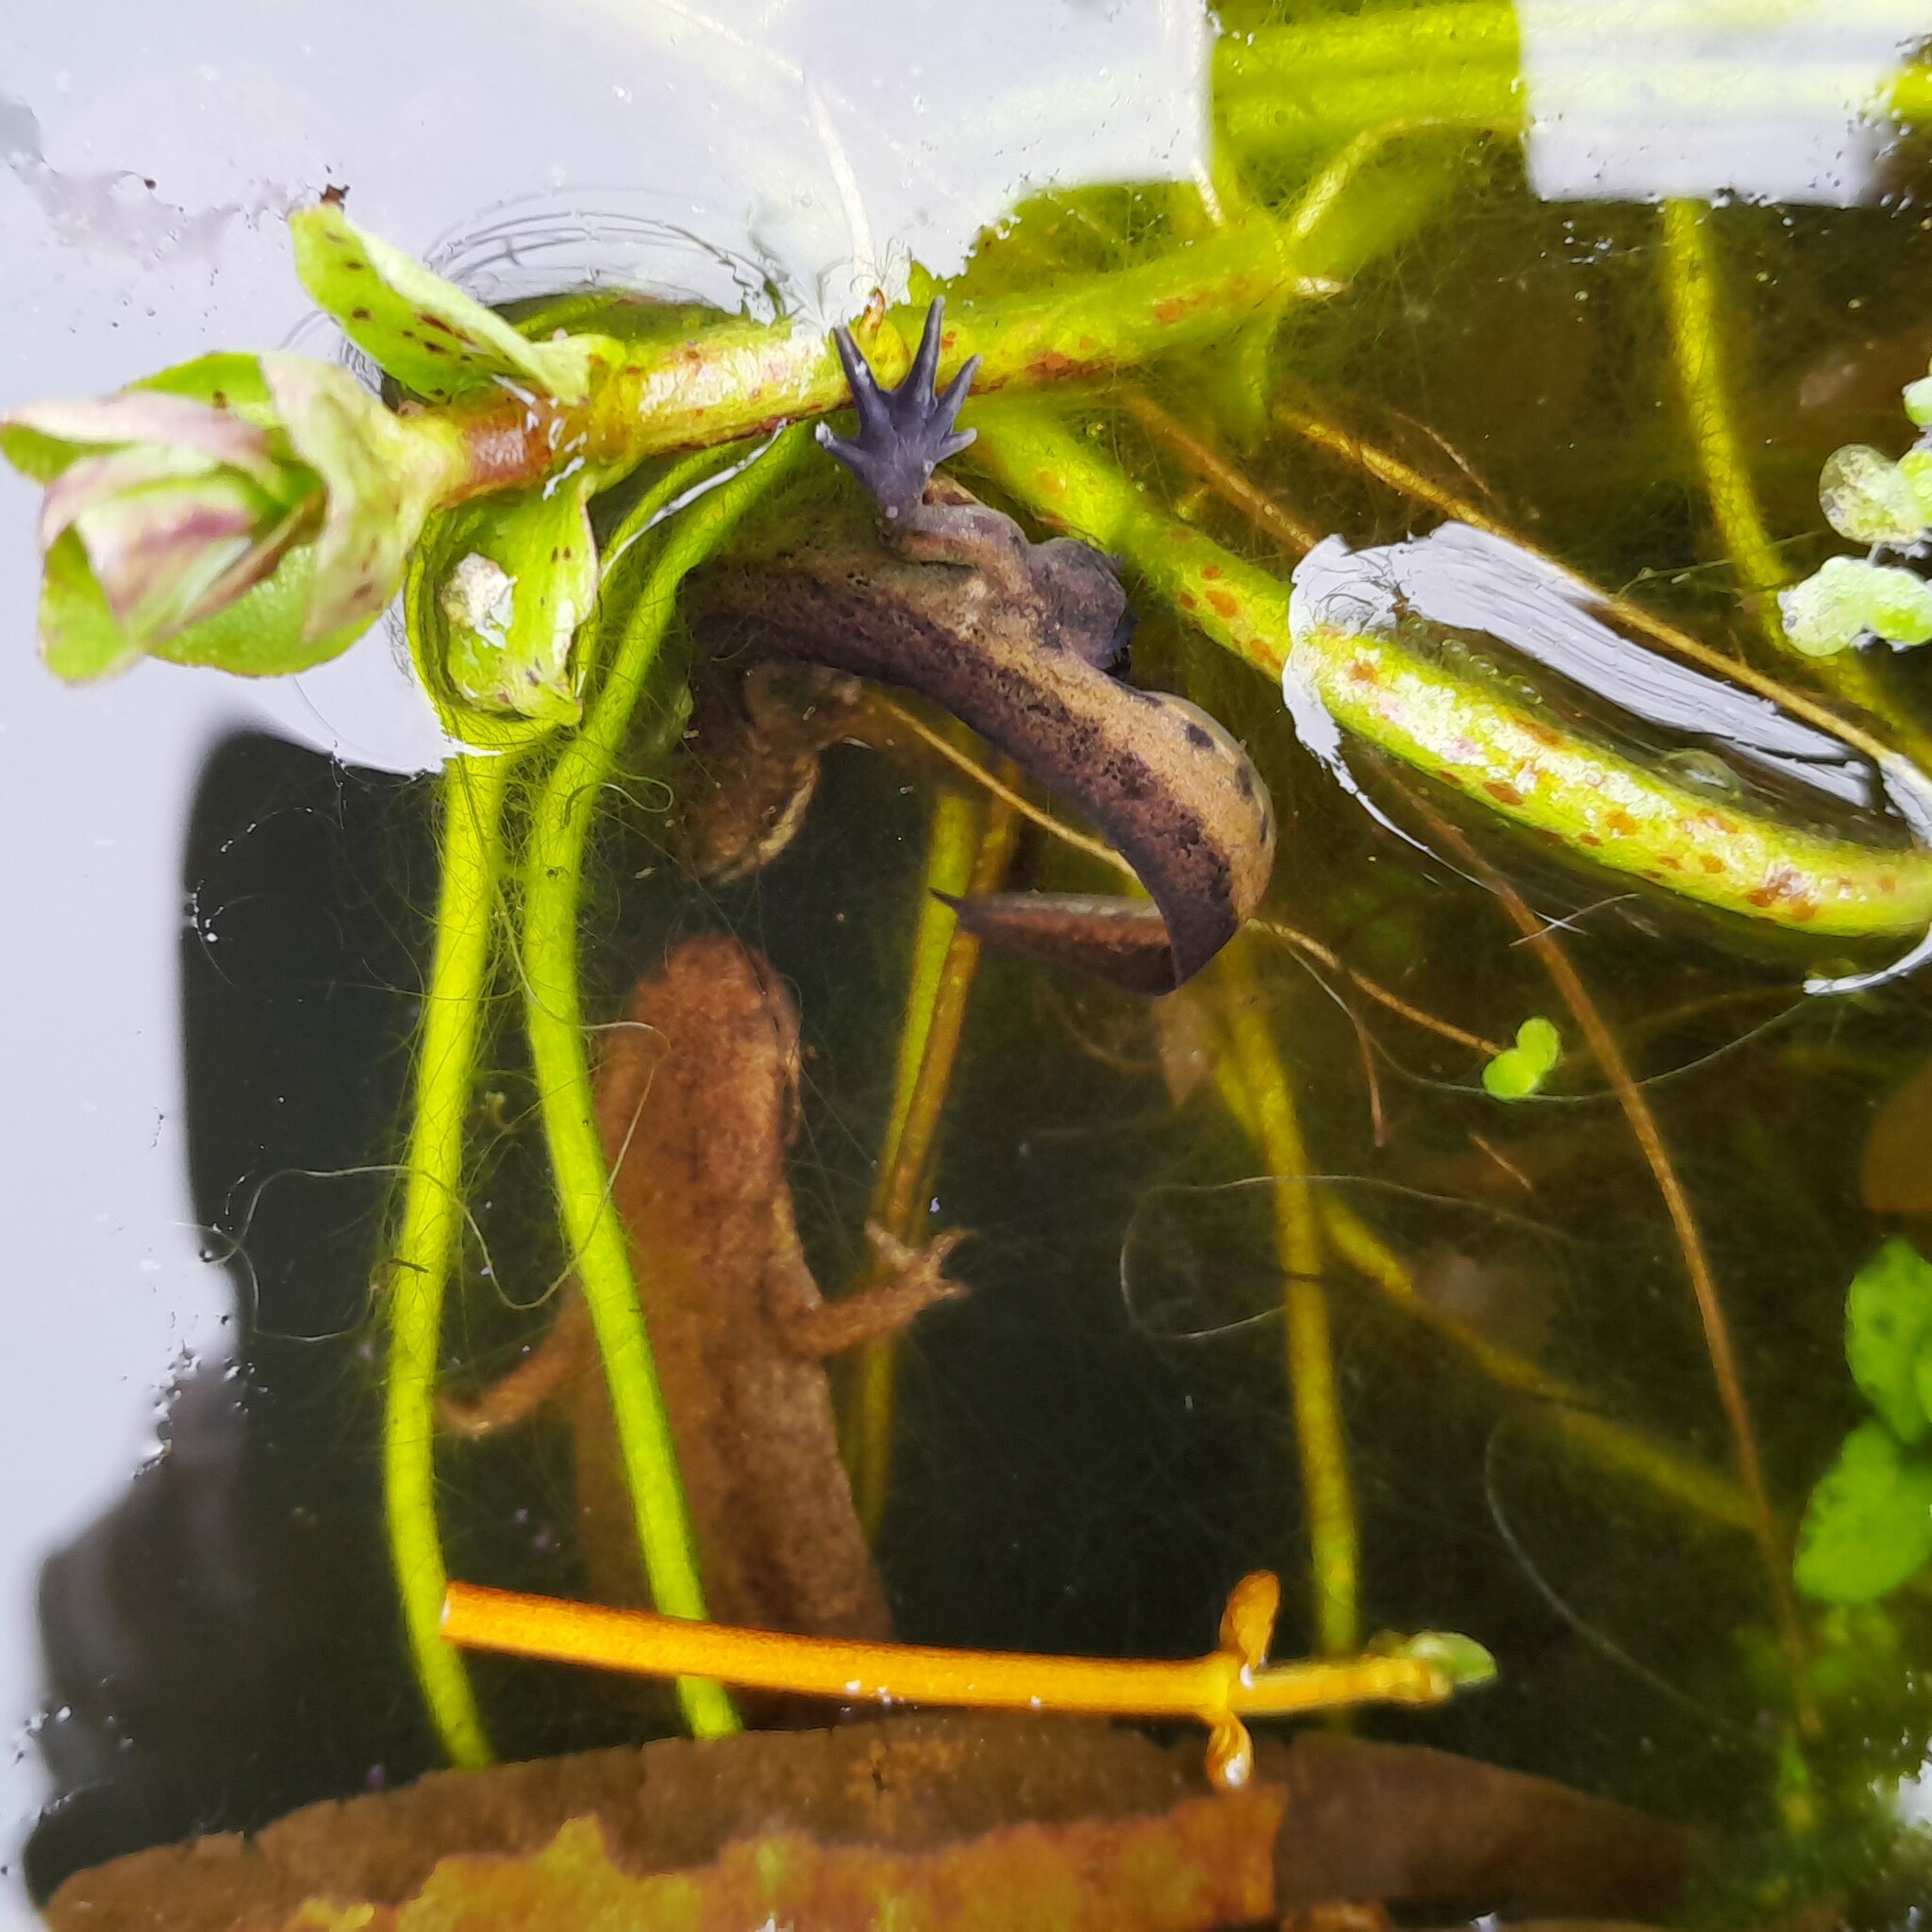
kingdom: Animalia
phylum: Chordata
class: Amphibia
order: Caudata
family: Salamandridae
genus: Lissotriton
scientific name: Lissotriton helveticus
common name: Palmate newt
